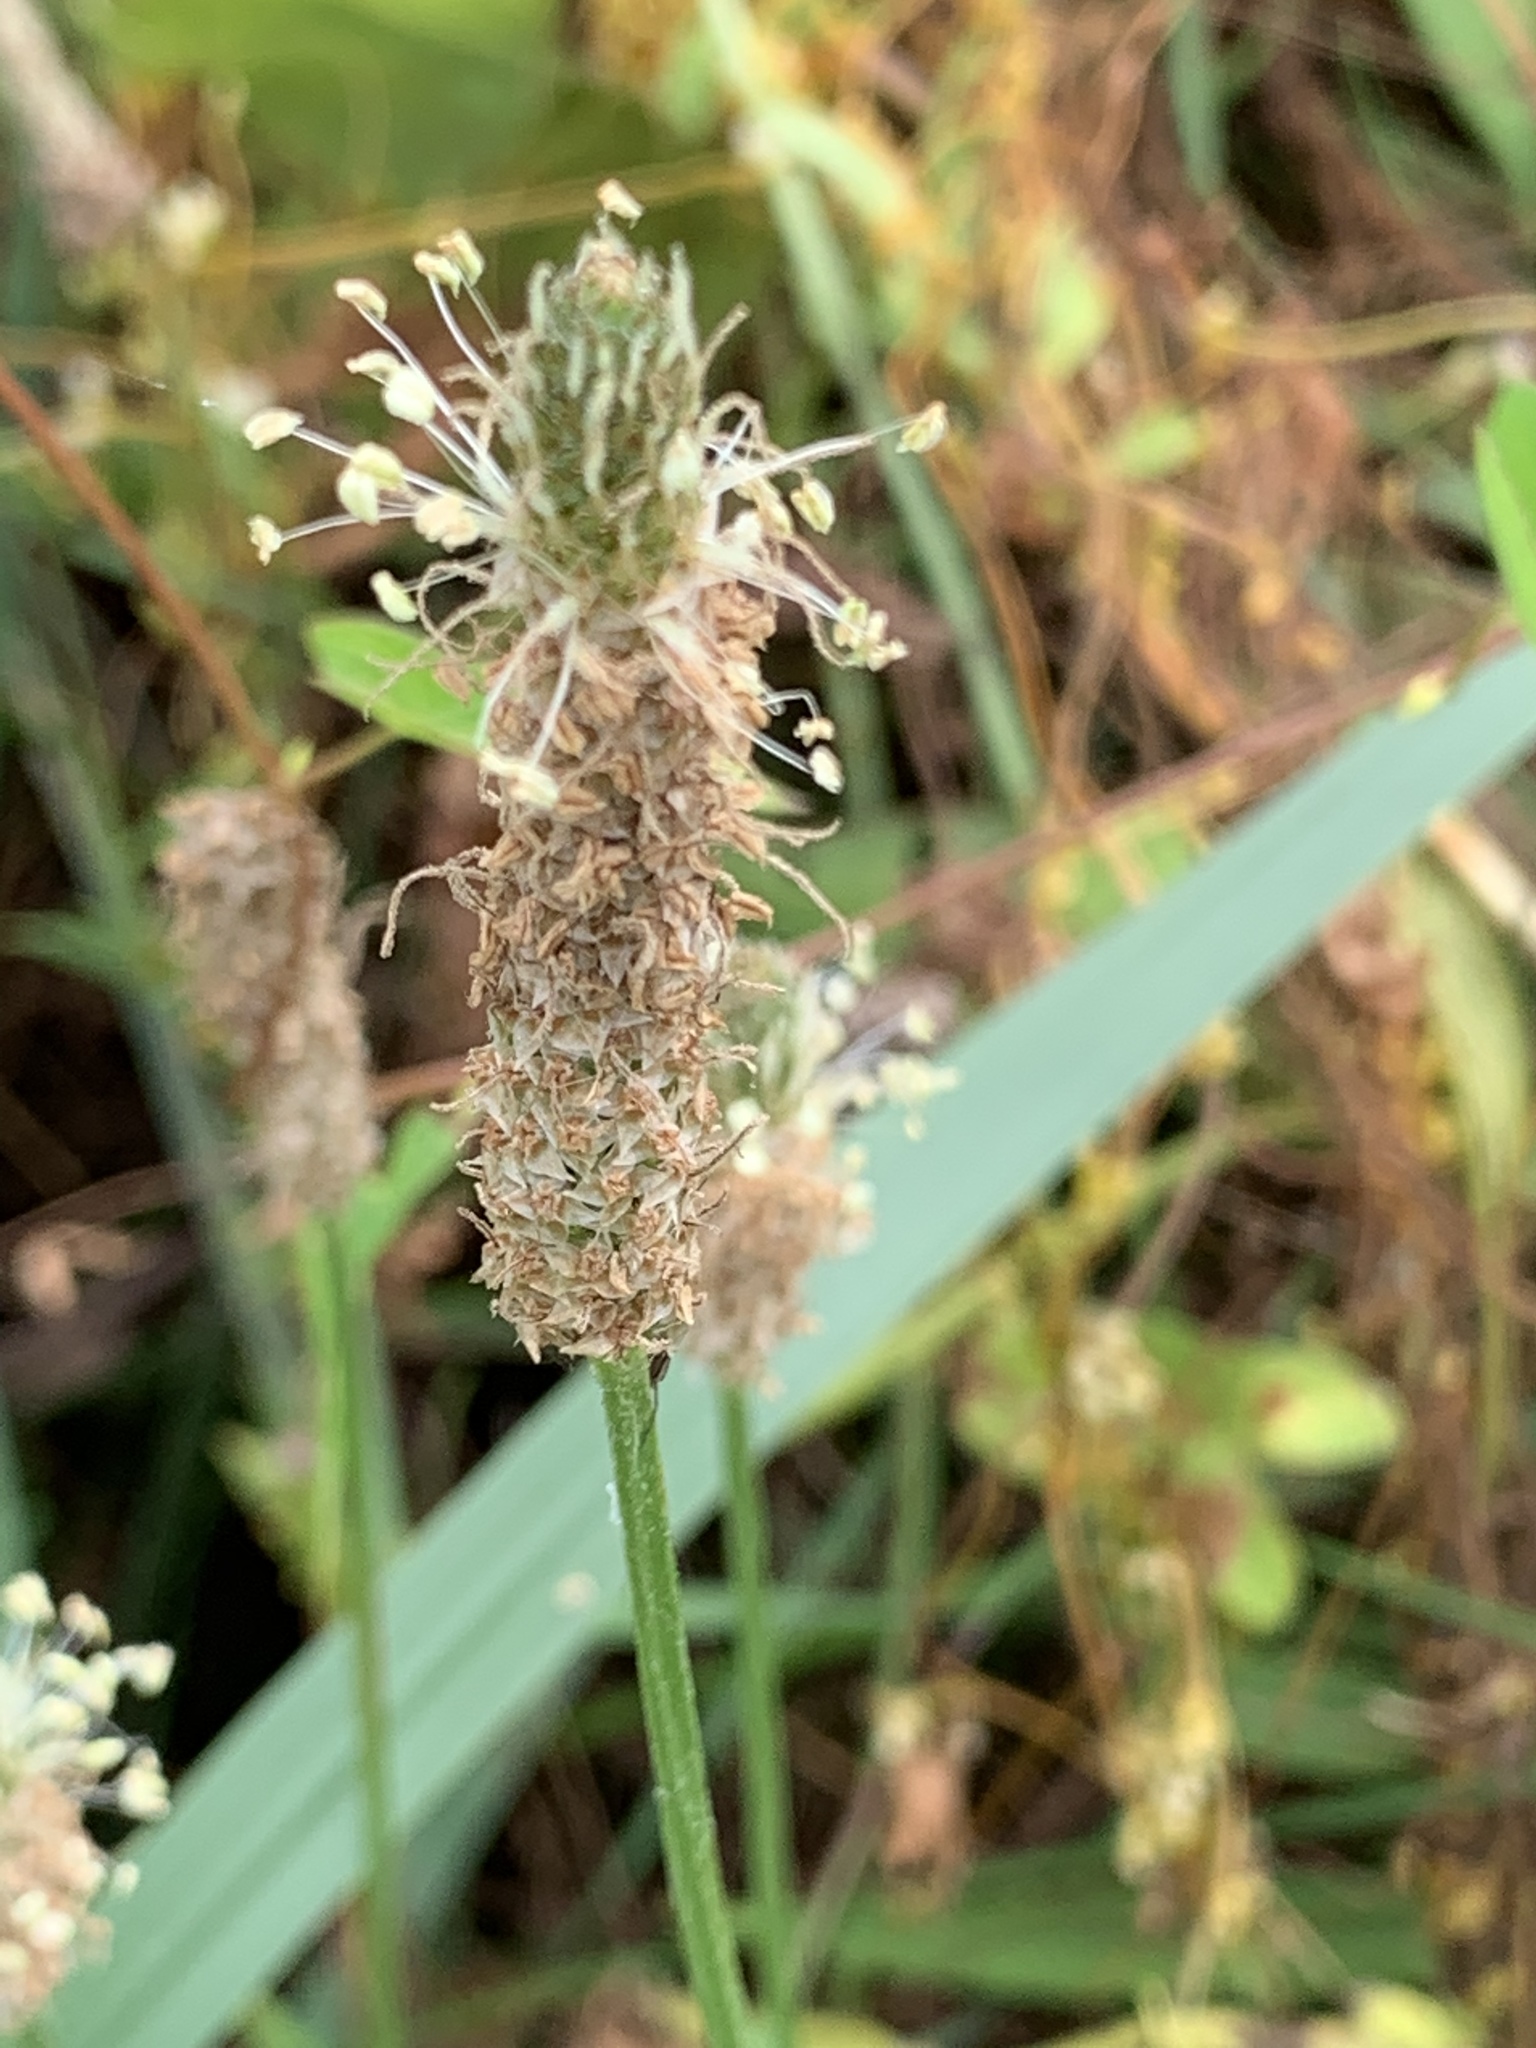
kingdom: Plantae
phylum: Tracheophyta
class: Magnoliopsida
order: Lamiales
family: Plantaginaceae
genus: Plantago
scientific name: Plantago lanceolata
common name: Ribwort plantain
